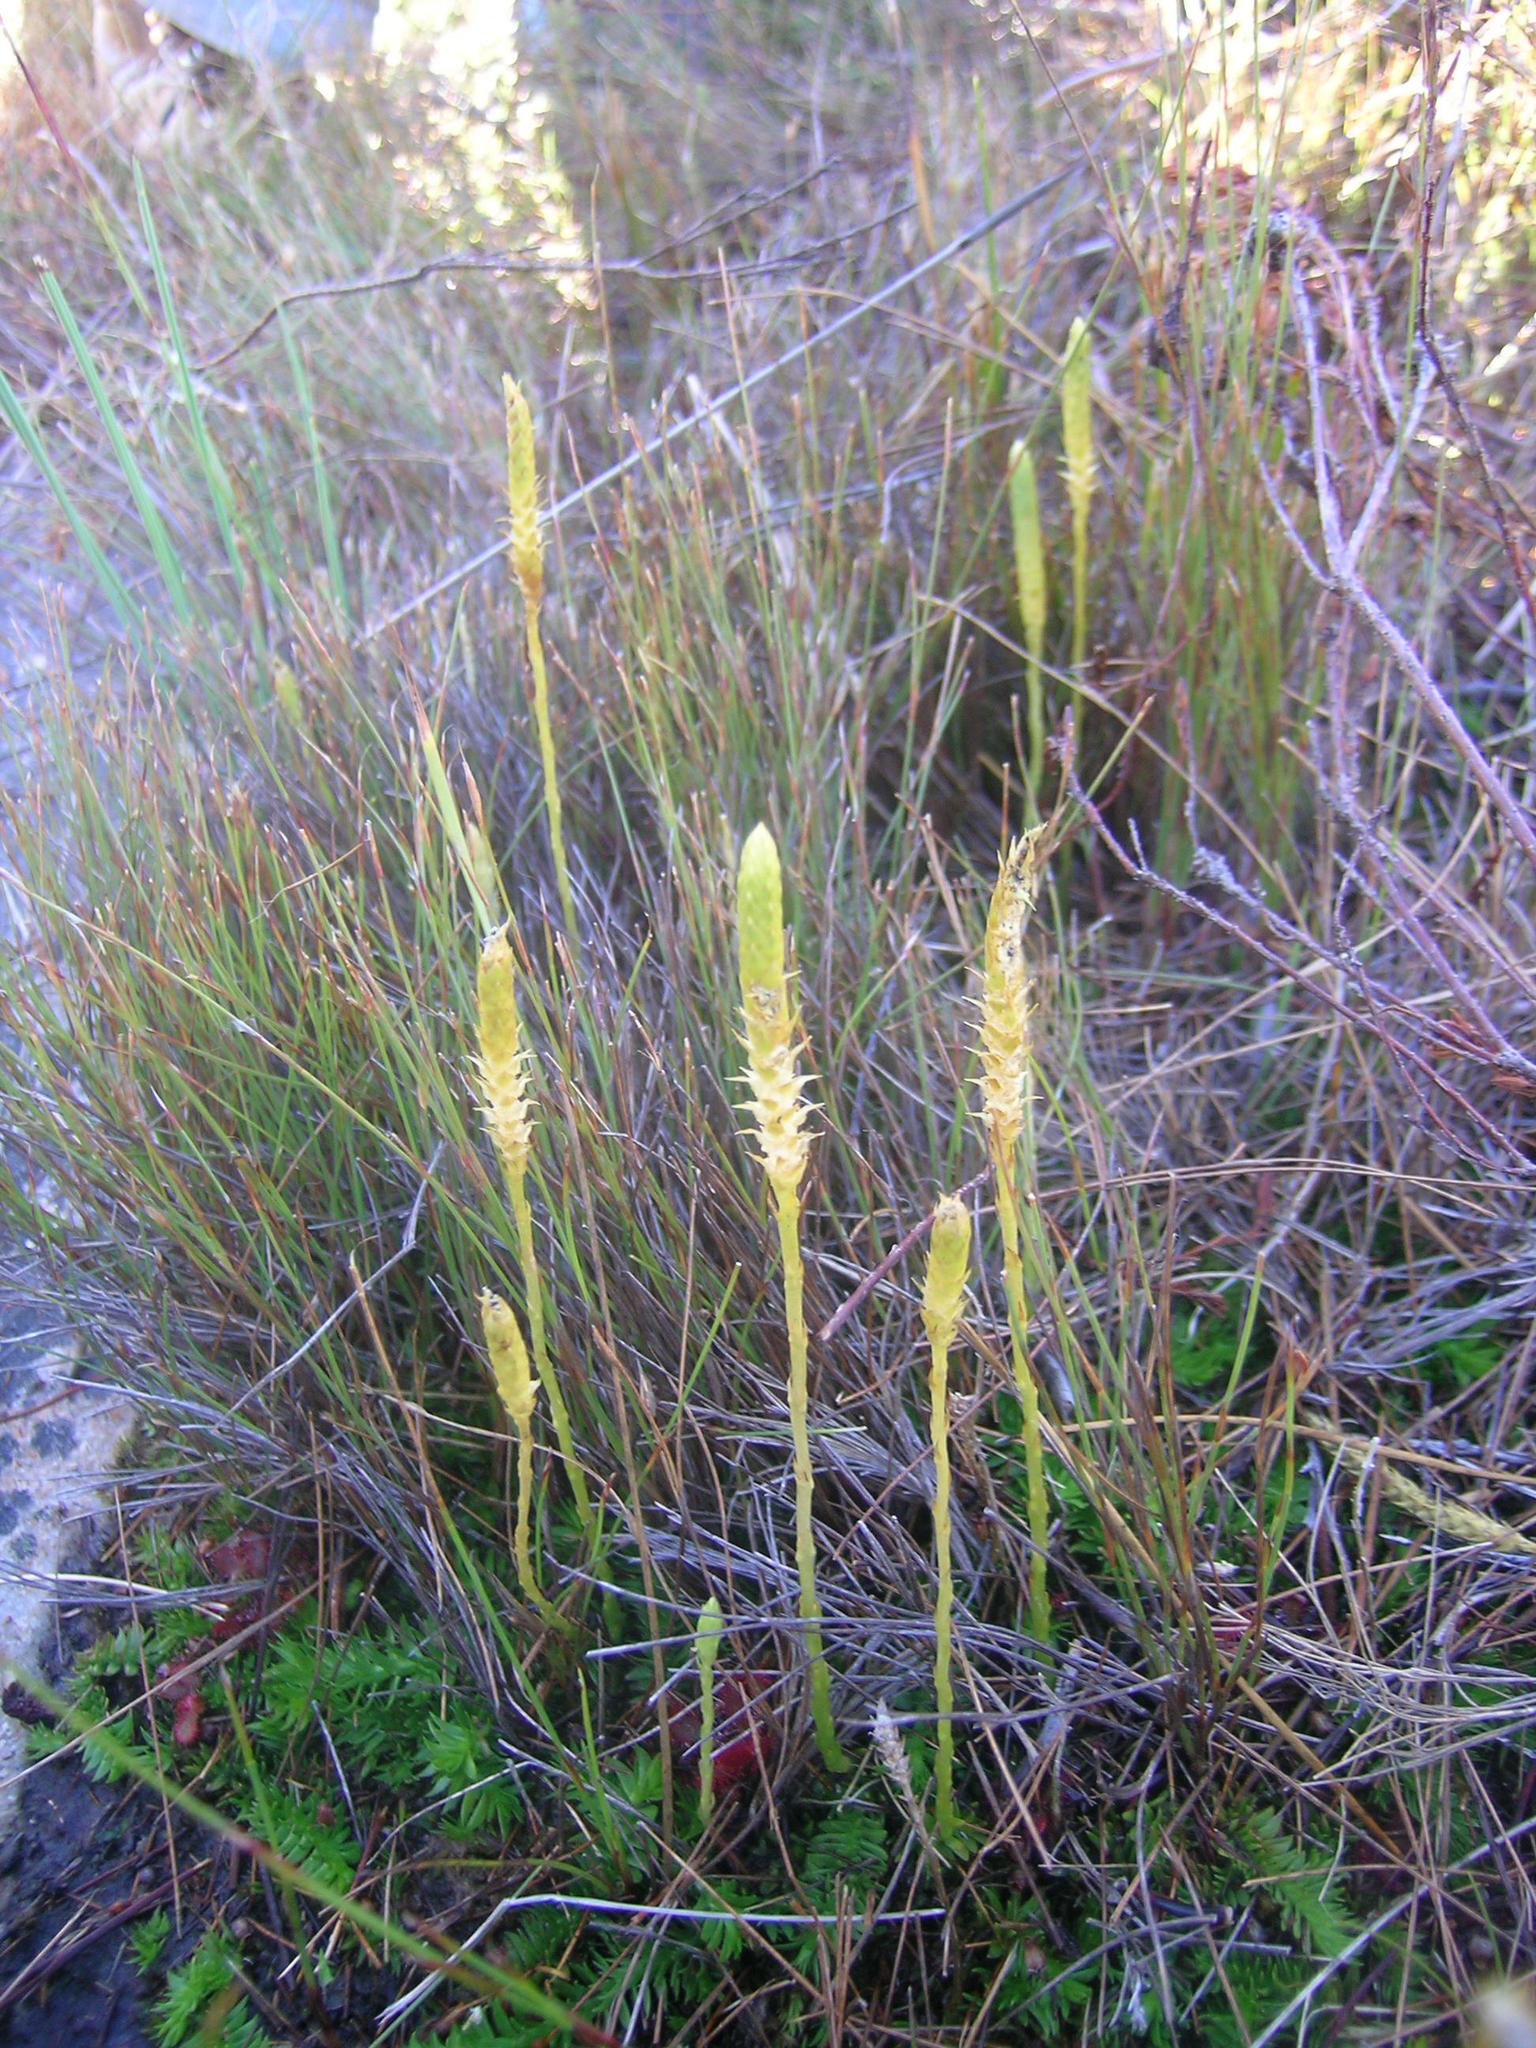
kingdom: Plantae
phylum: Tracheophyta
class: Lycopodiopsida
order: Lycopodiales
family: Lycopodiaceae
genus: Pseudolycopodiella
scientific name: Pseudolycopodiella caroliniana
